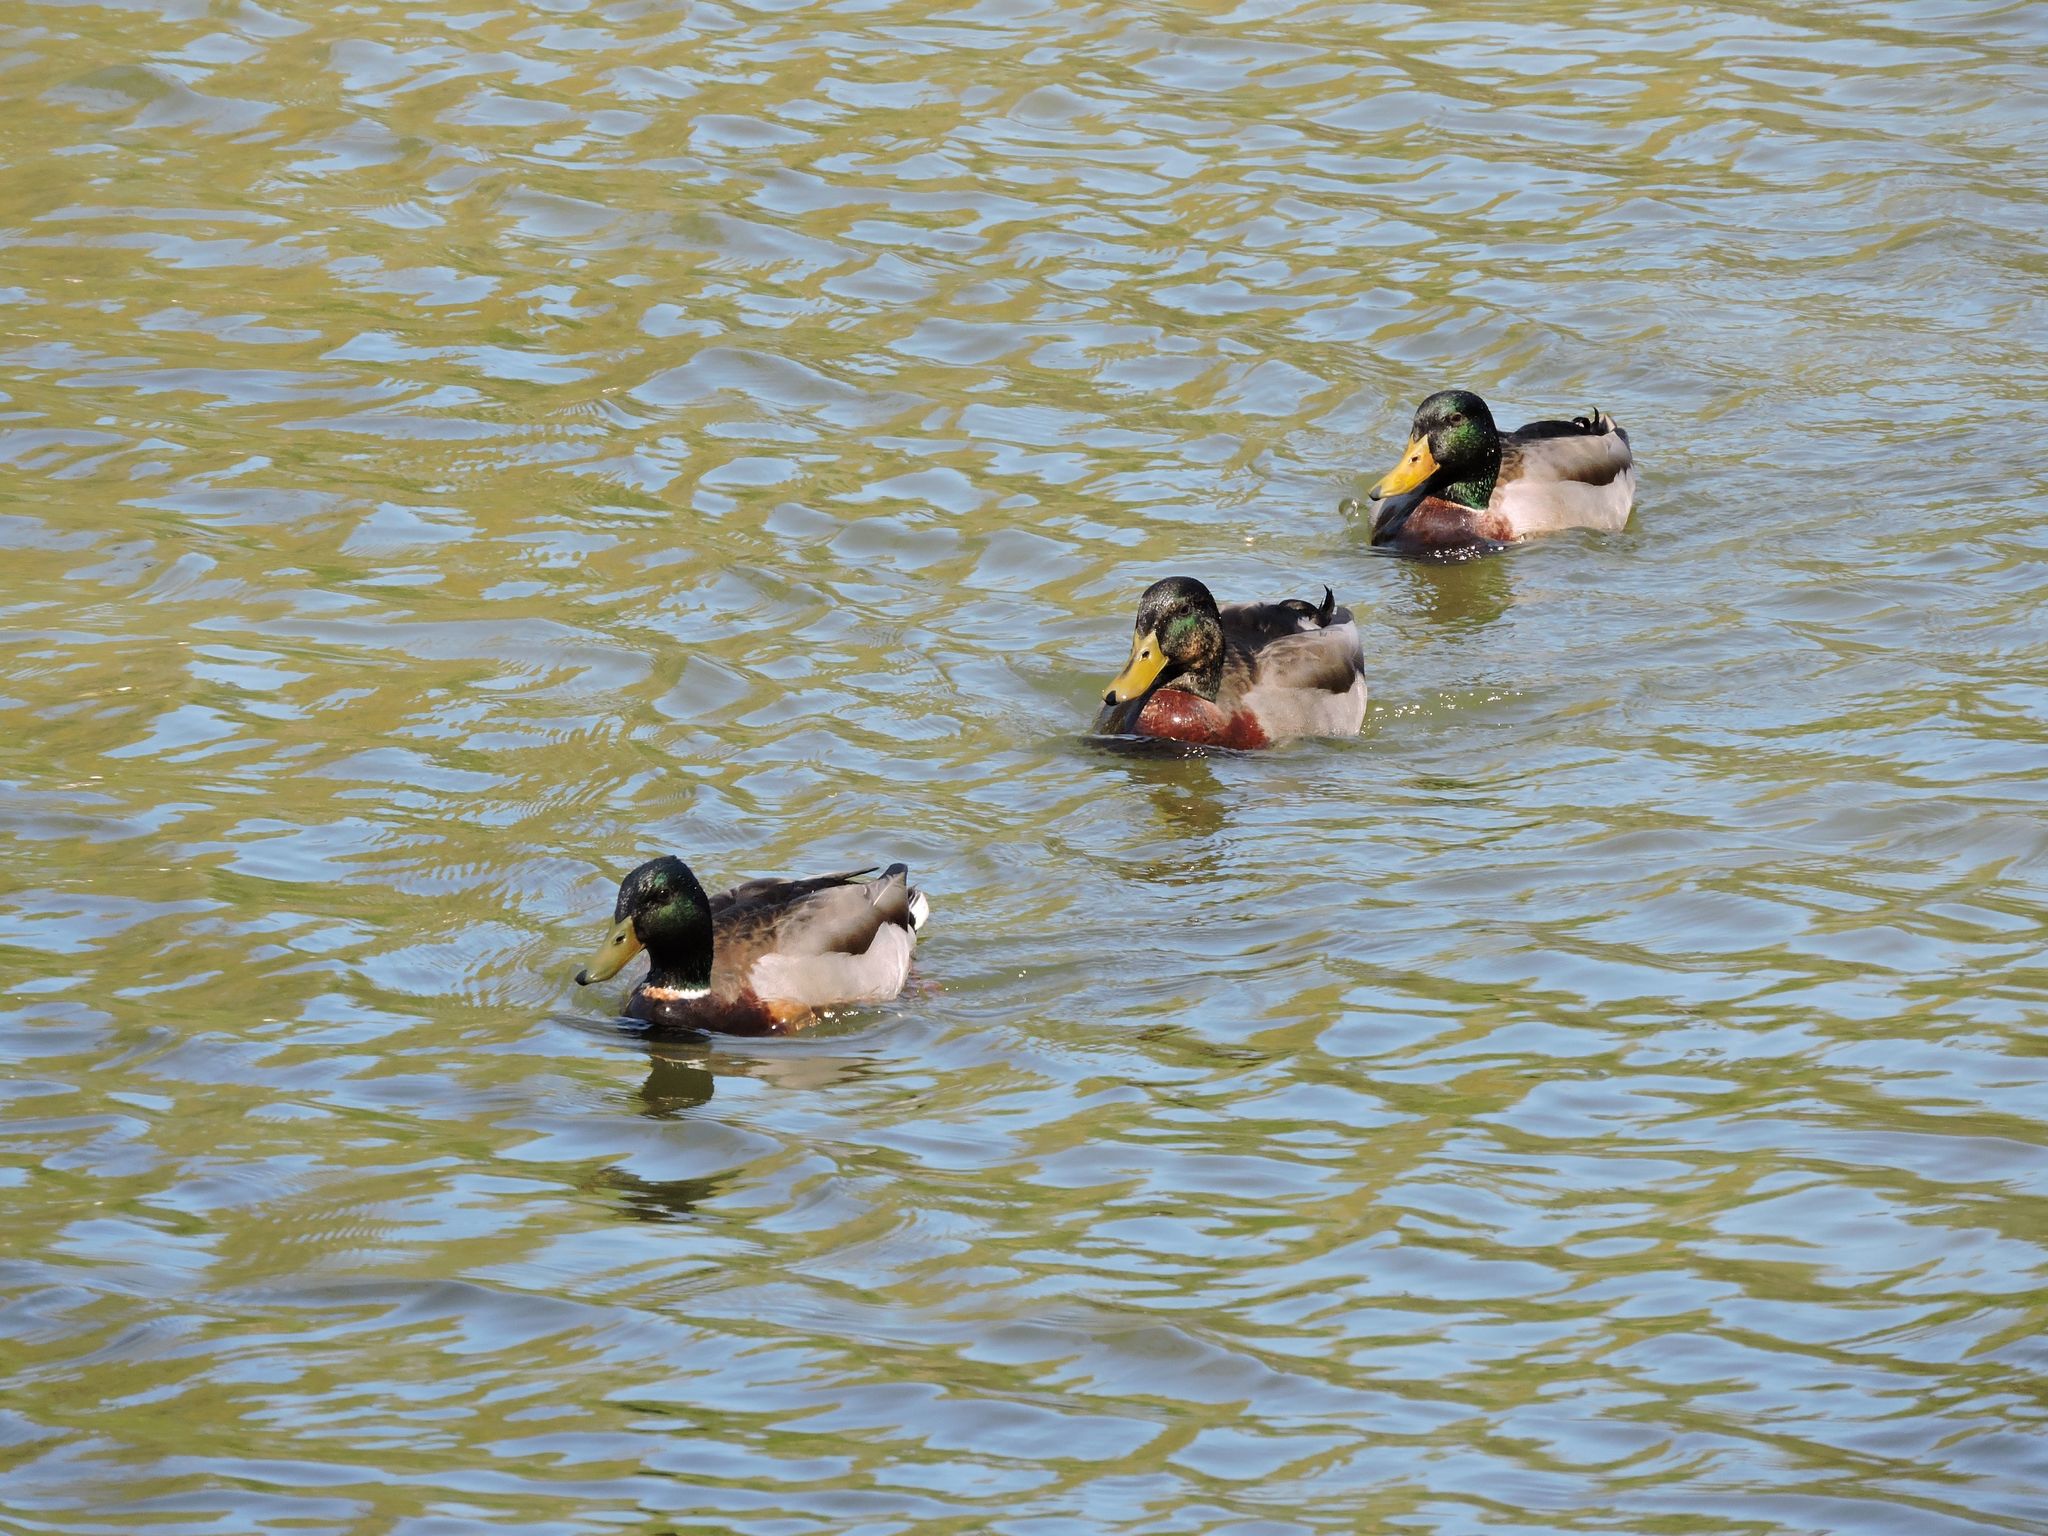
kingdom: Animalia
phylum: Chordata
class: Aves
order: Anseriformes
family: Anatidae
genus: Anas
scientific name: Anas platyrhynchos
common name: Mallard
